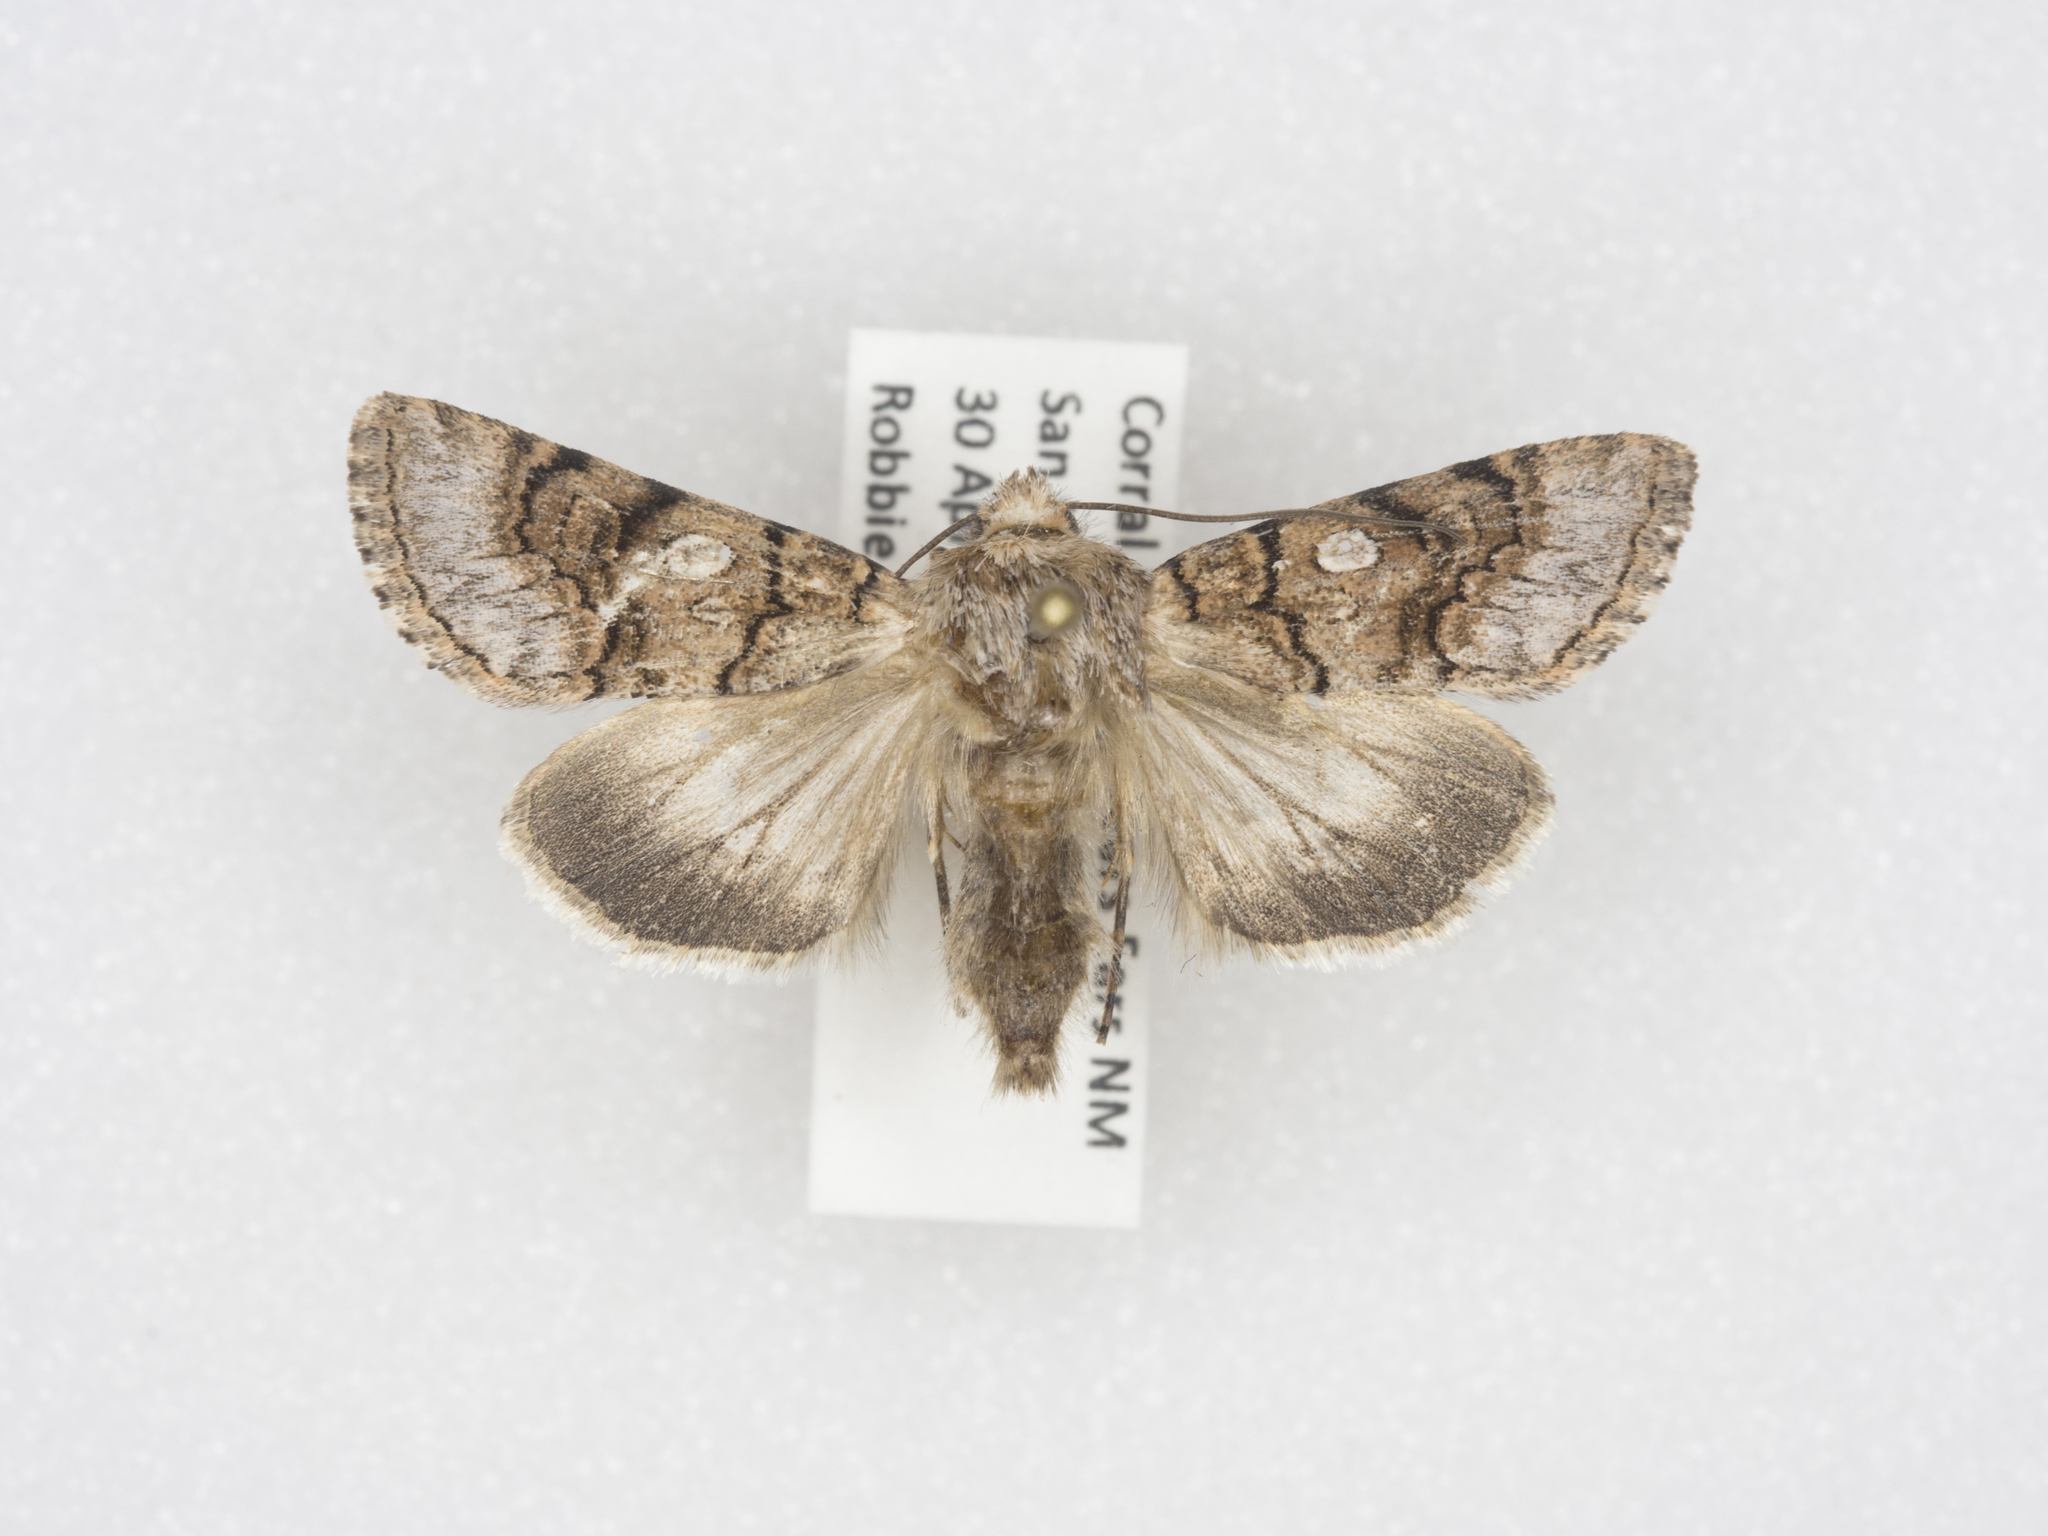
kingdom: Animalia
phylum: Arthropoda
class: Insecta
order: Lepidoptera
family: Noctuidae
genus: Sympistis
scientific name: Sympistis polingii
